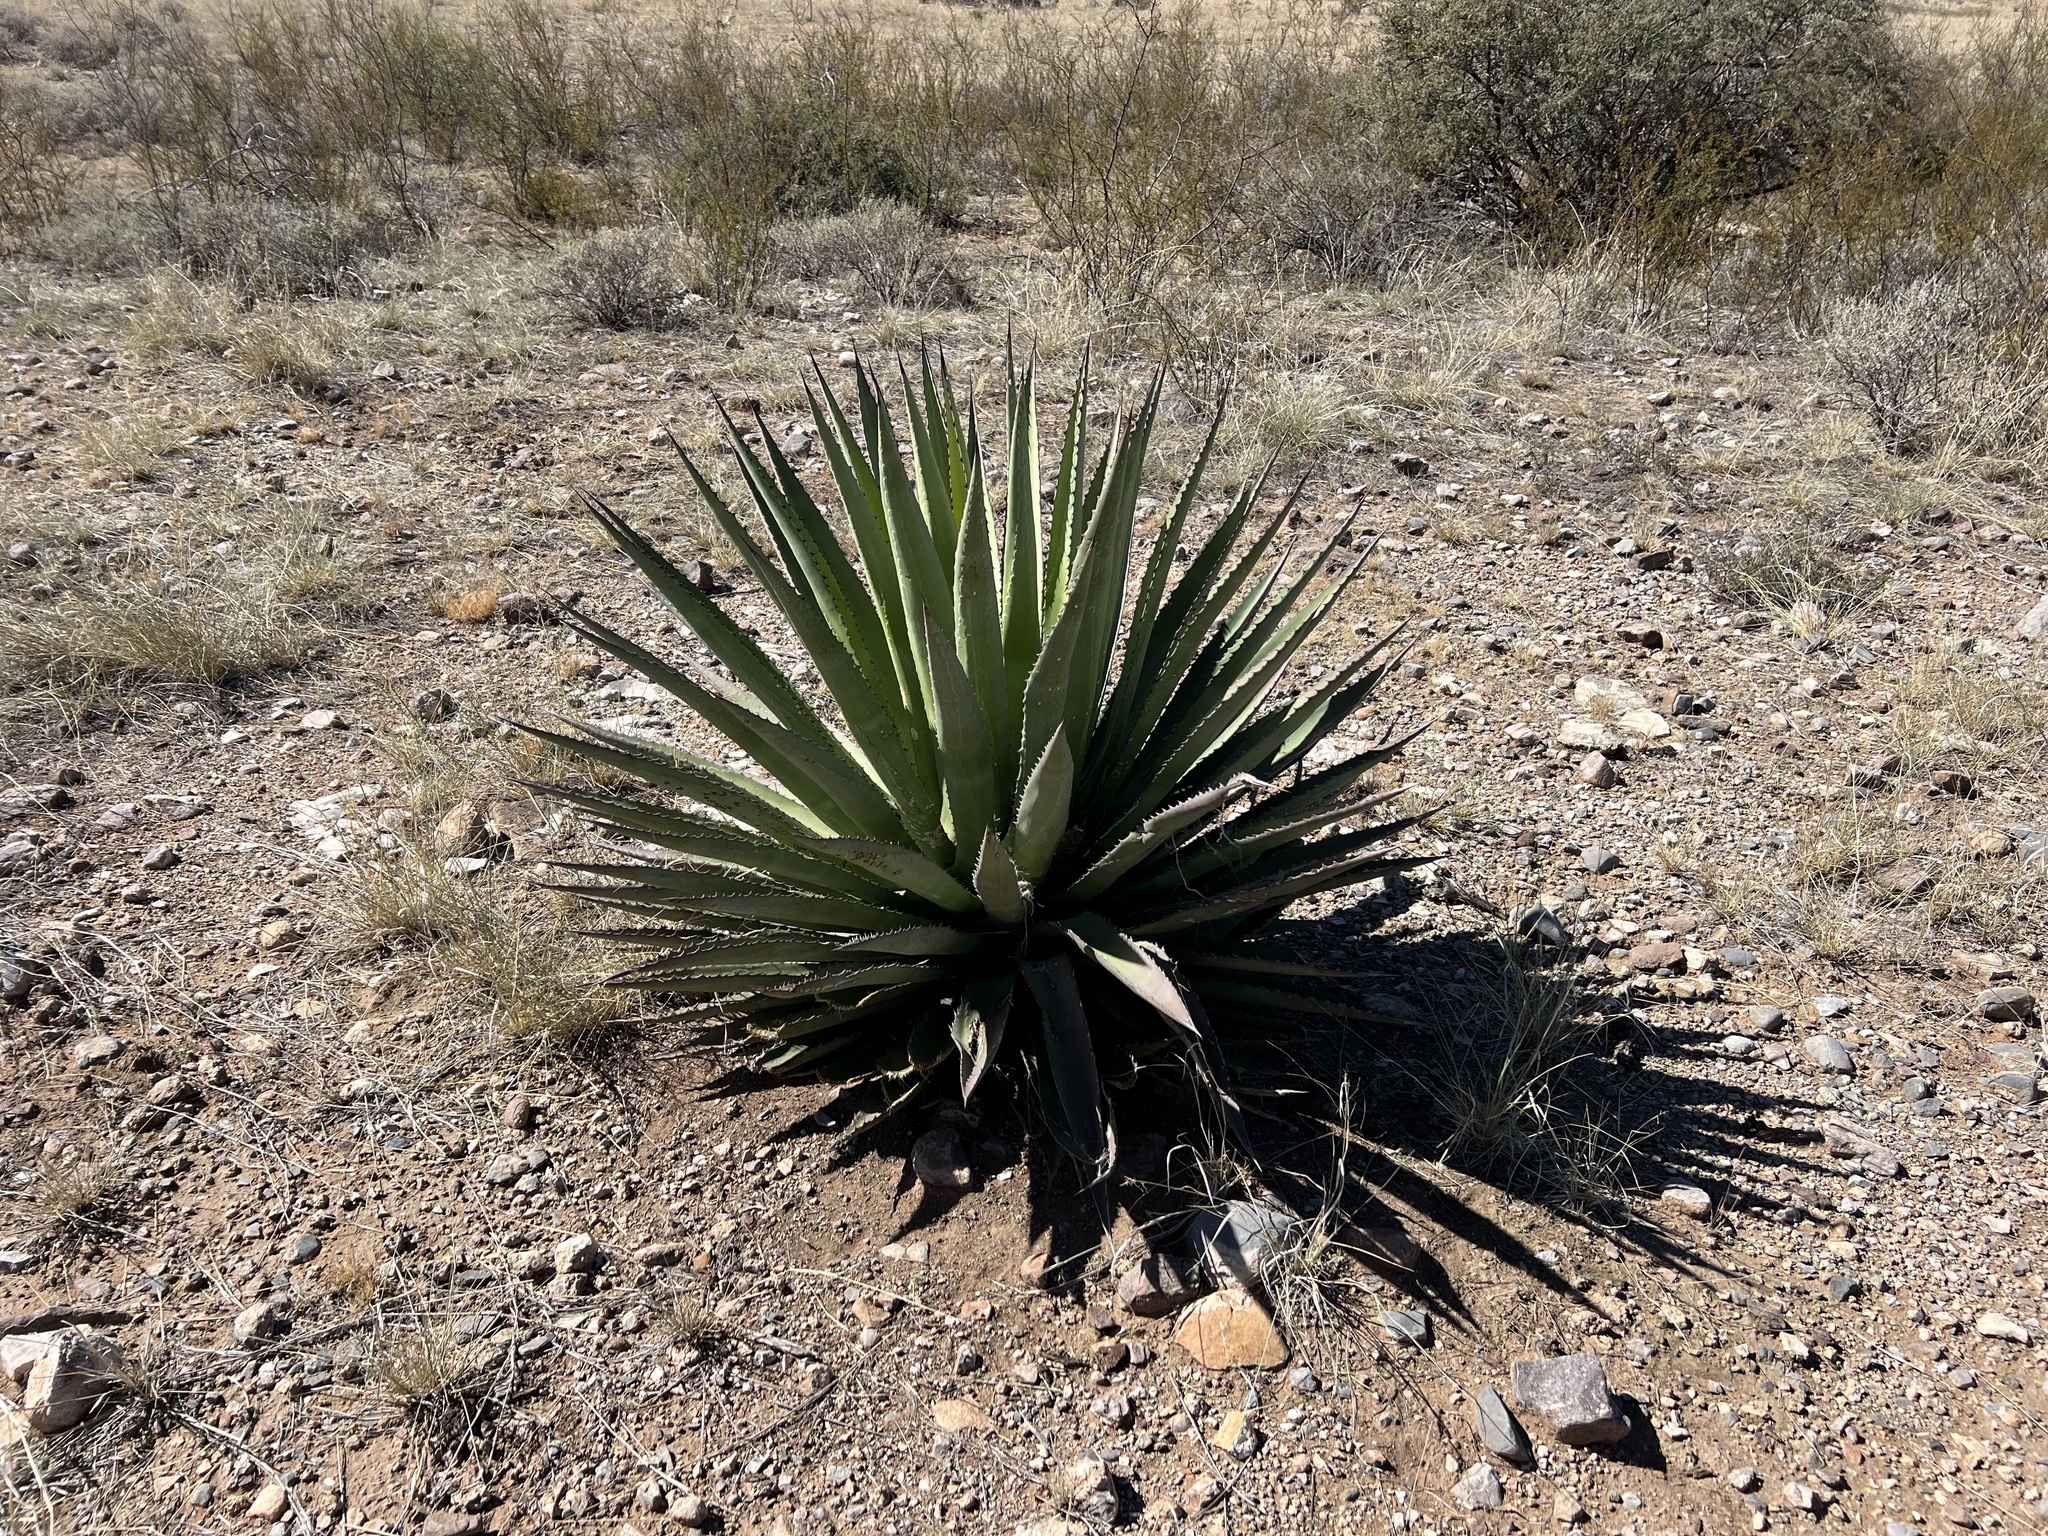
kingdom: Plantae
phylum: Tracheophyta
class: Liliopsida
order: Asparagales
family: Asparagaceae
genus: Agave
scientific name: Agave palmeri
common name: Palmer agave
